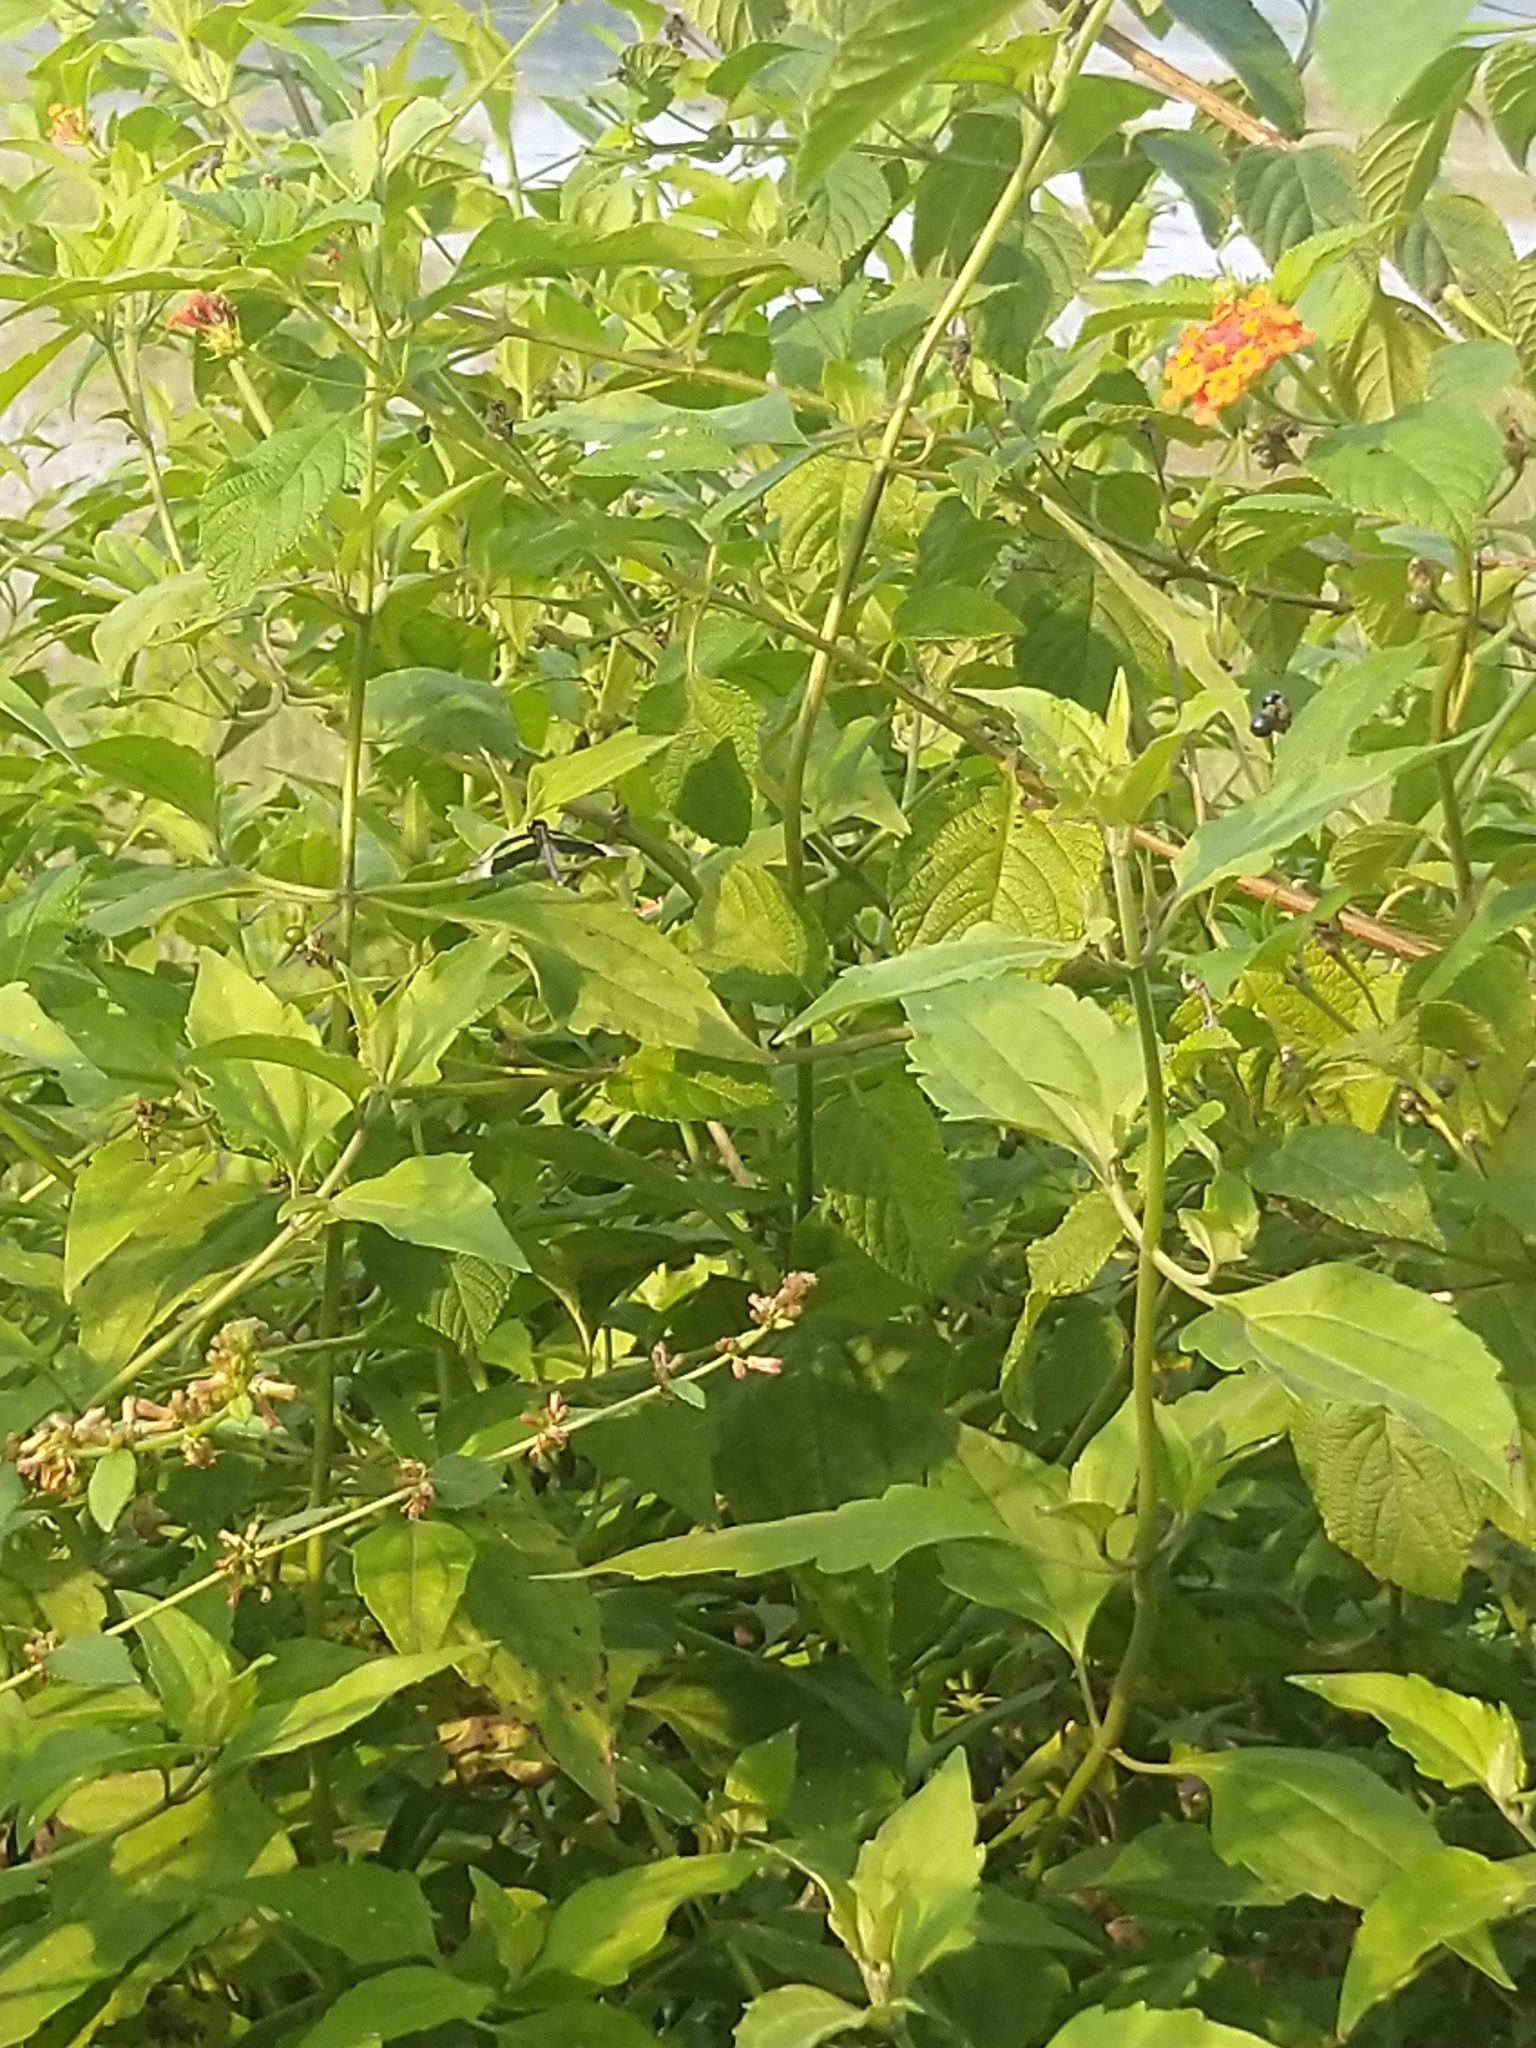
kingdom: Plantae
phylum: Tracheophyta
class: Magnoliopsida
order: Lamiales
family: Verbenaceae
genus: Lantana
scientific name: Lantana camara
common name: Lantana
